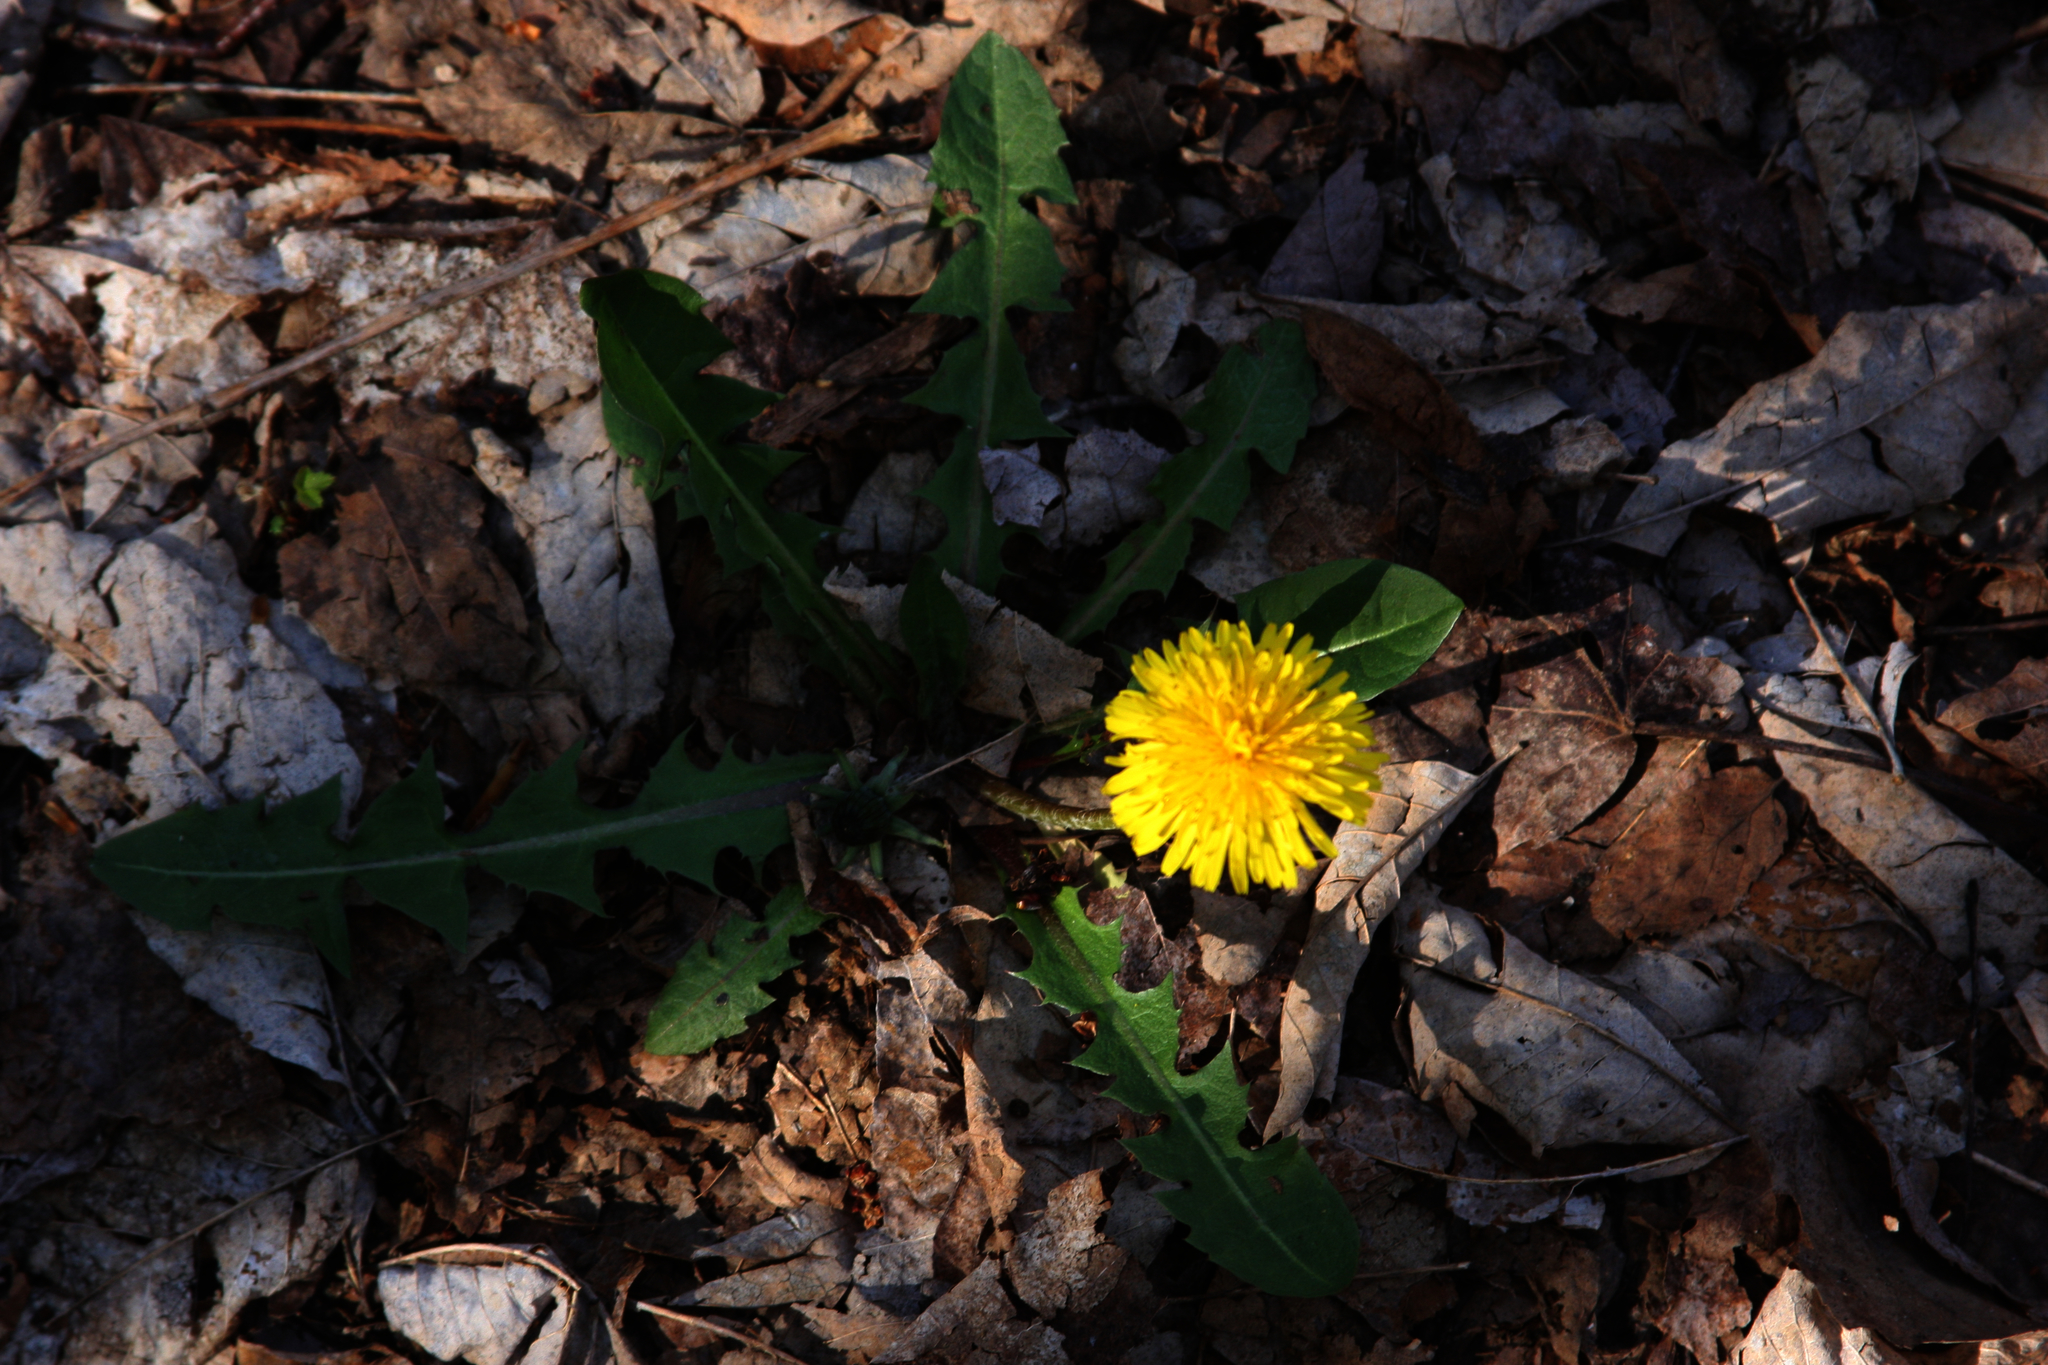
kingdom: Plantae
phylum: Tracheophyta
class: Magnoliopsida
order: Asterales
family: Asteraceae
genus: Taraxacum
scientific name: Taraxacum officinale
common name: Common dandelion
